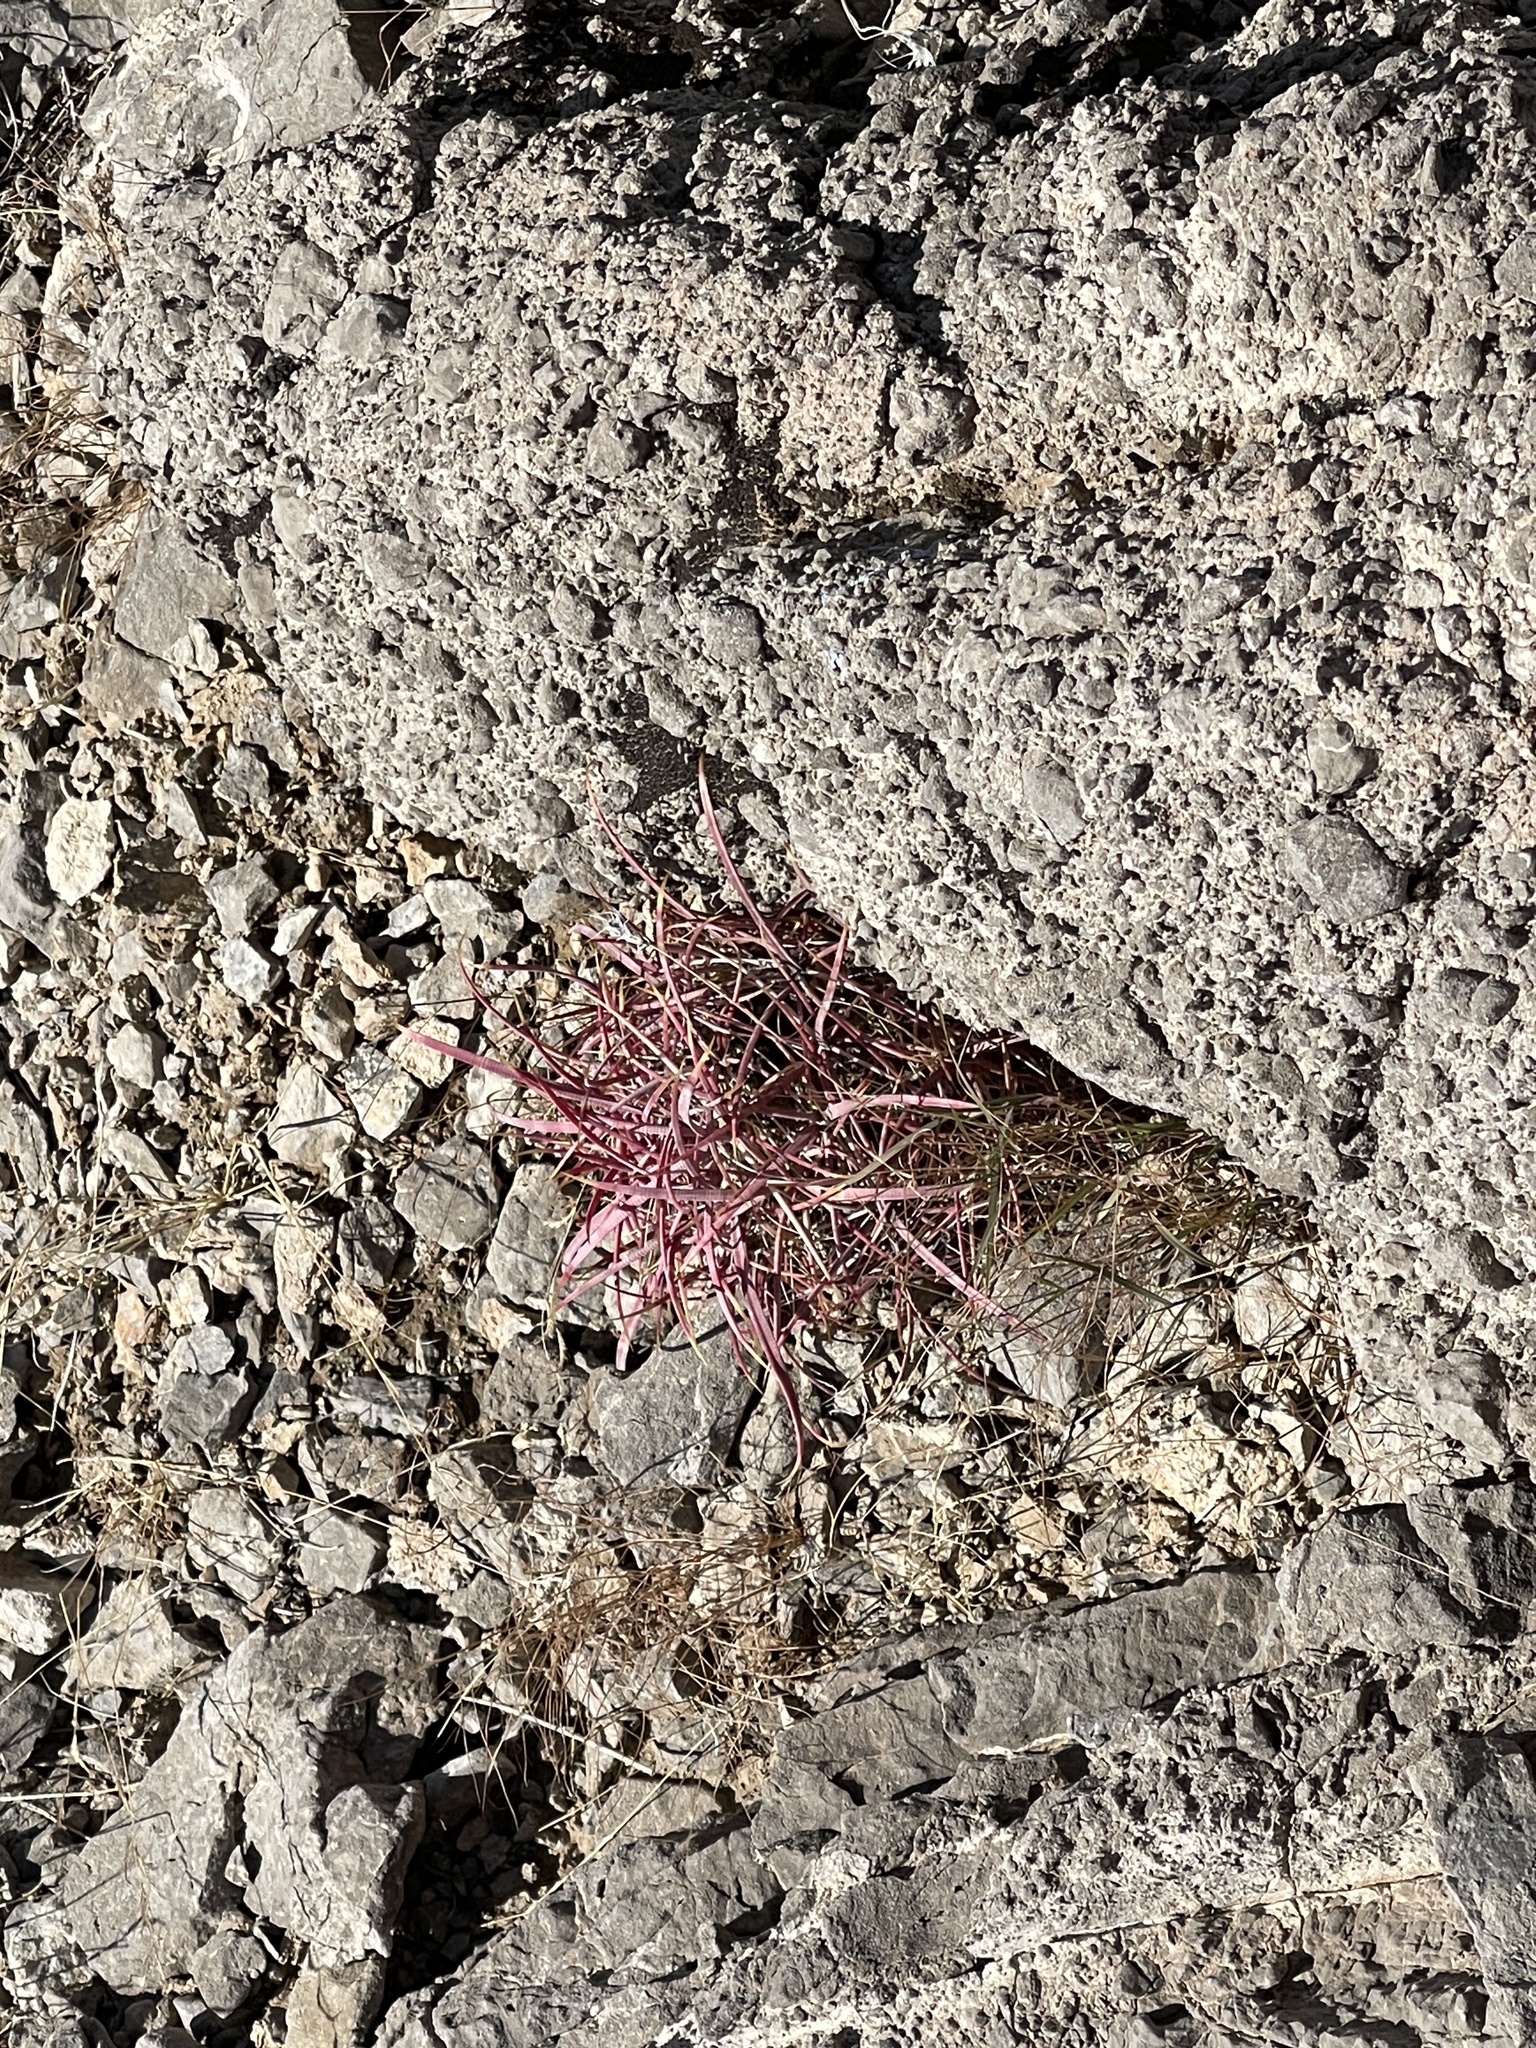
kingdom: Plantae
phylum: Tracheophyta
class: Magnoliopsida
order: Caryophyllales
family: Cactaceae
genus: Echinocactus
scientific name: Echinocactus polycephalus
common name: Cottontop cactus
